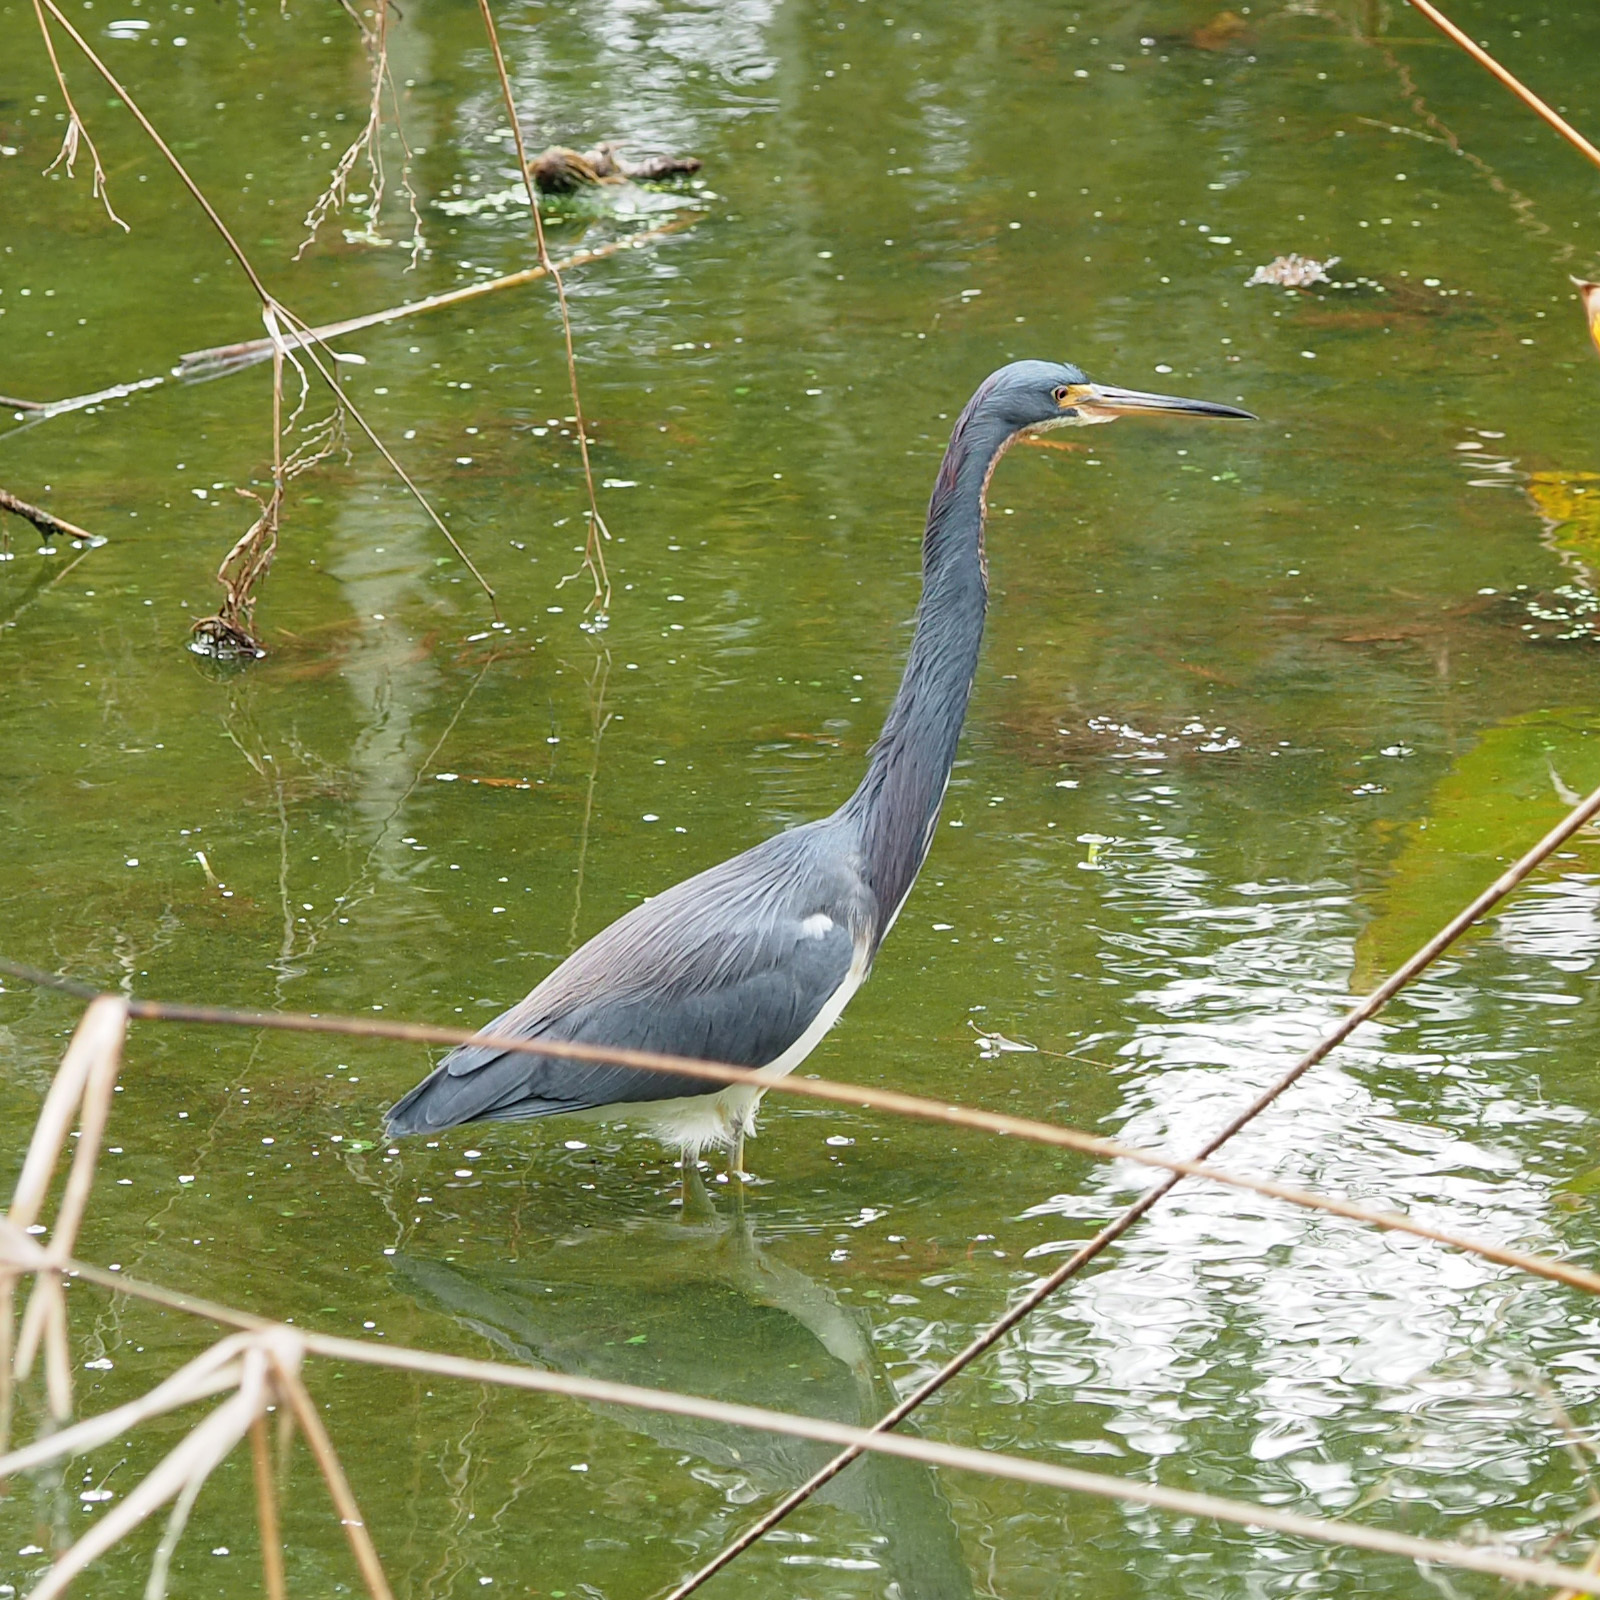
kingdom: Animalia
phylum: Chordata
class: Aves
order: Pelecaniformes
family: Ardeidae
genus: Egretta
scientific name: Egretta tricolor
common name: Tricolored heron
